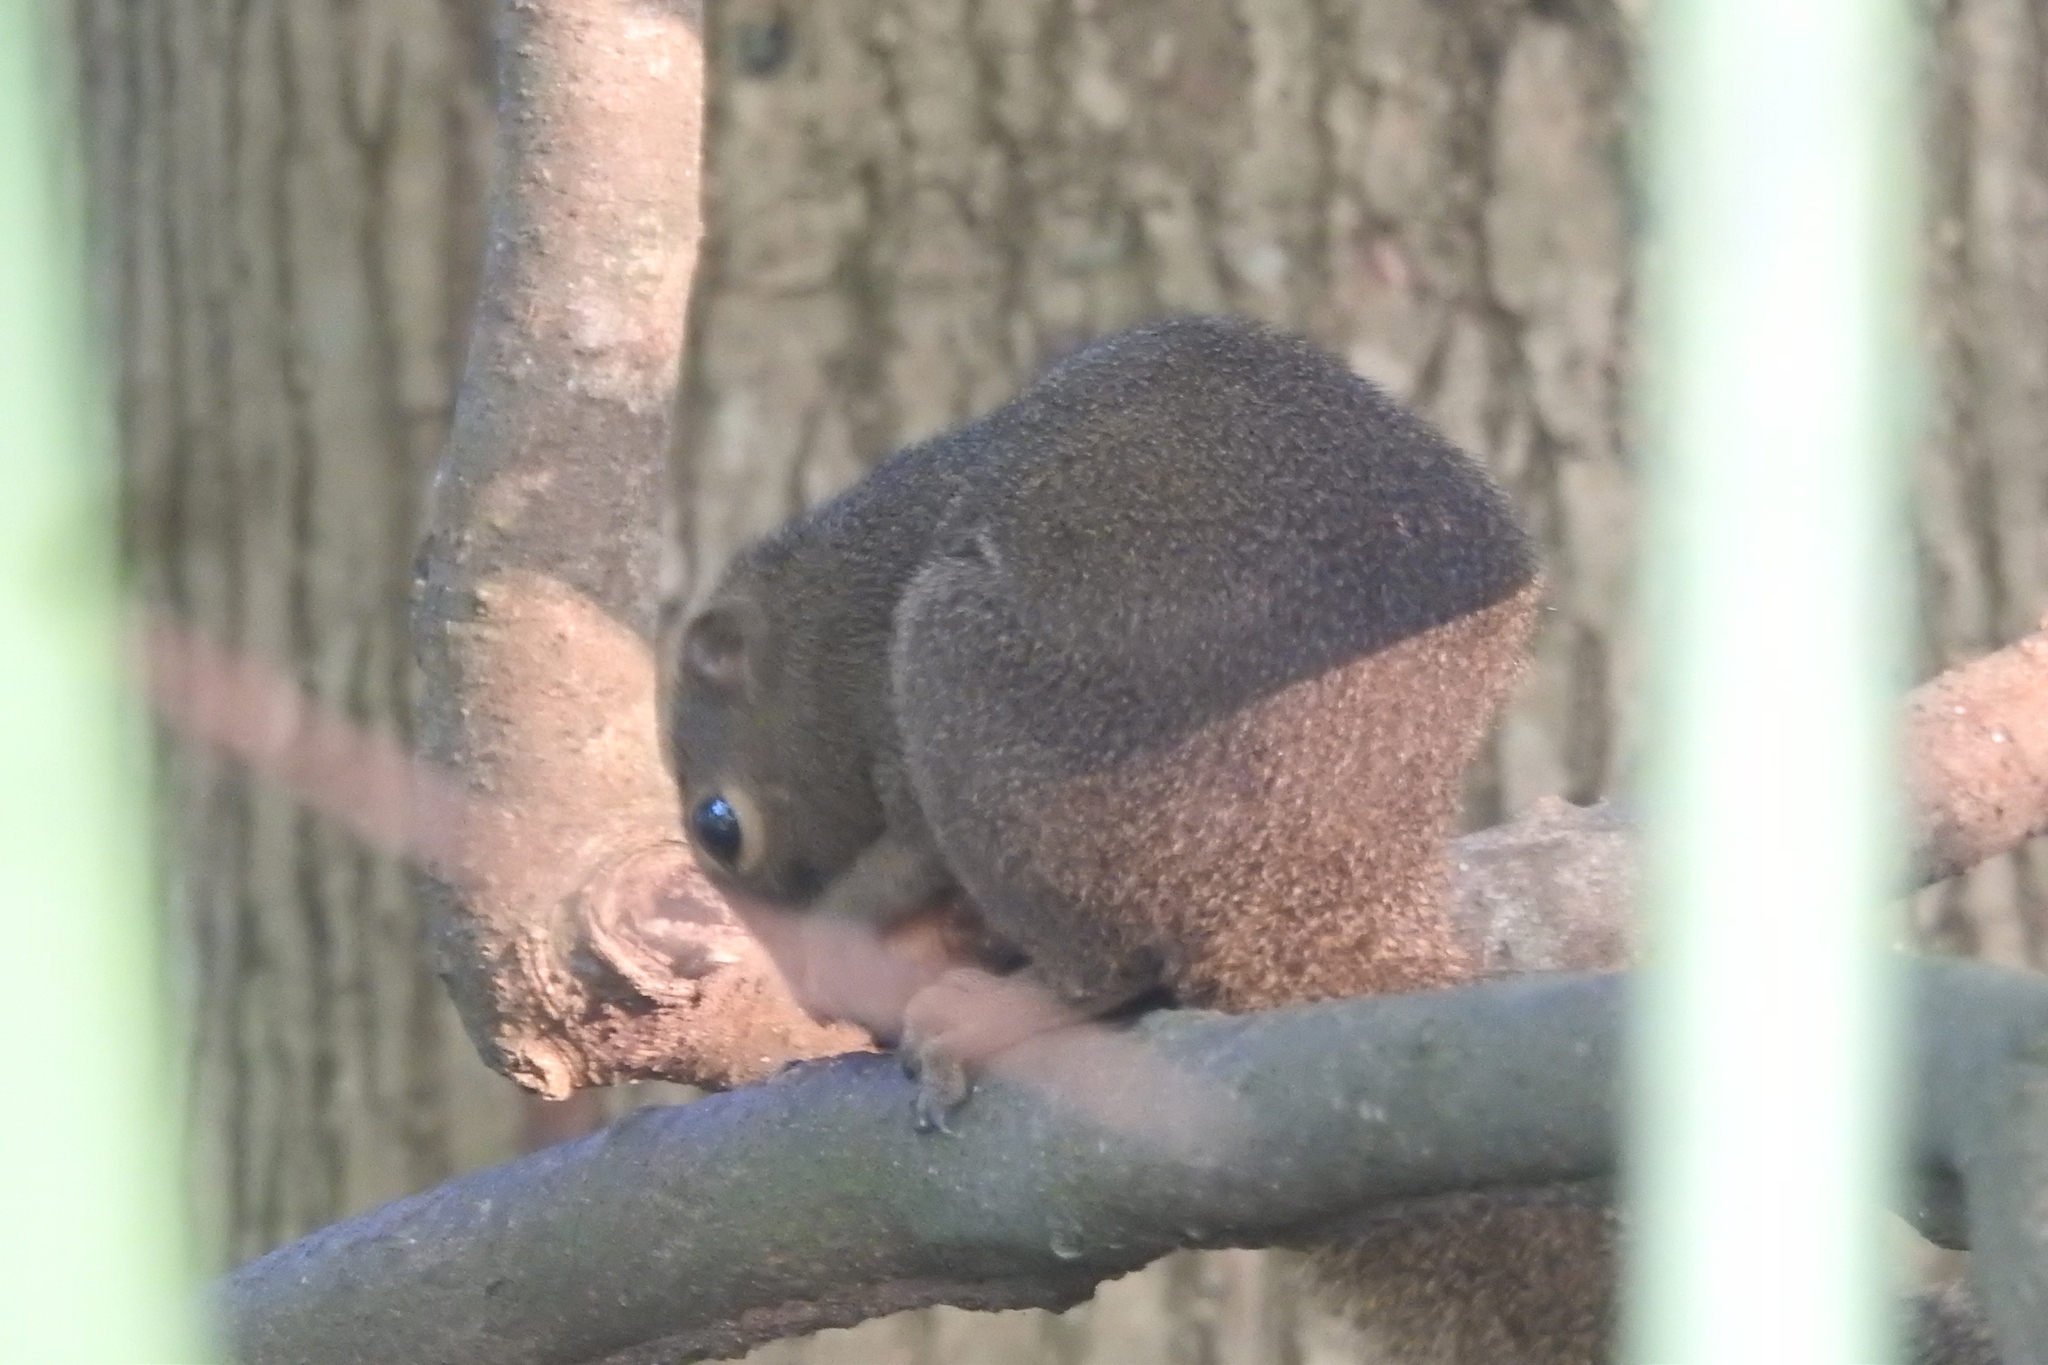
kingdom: Animalia
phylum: Chordata
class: Mammalia
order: Rodentia
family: Sciuridae
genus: Callosciurus
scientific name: Callosciurus notatus
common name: Plantain squirrel
